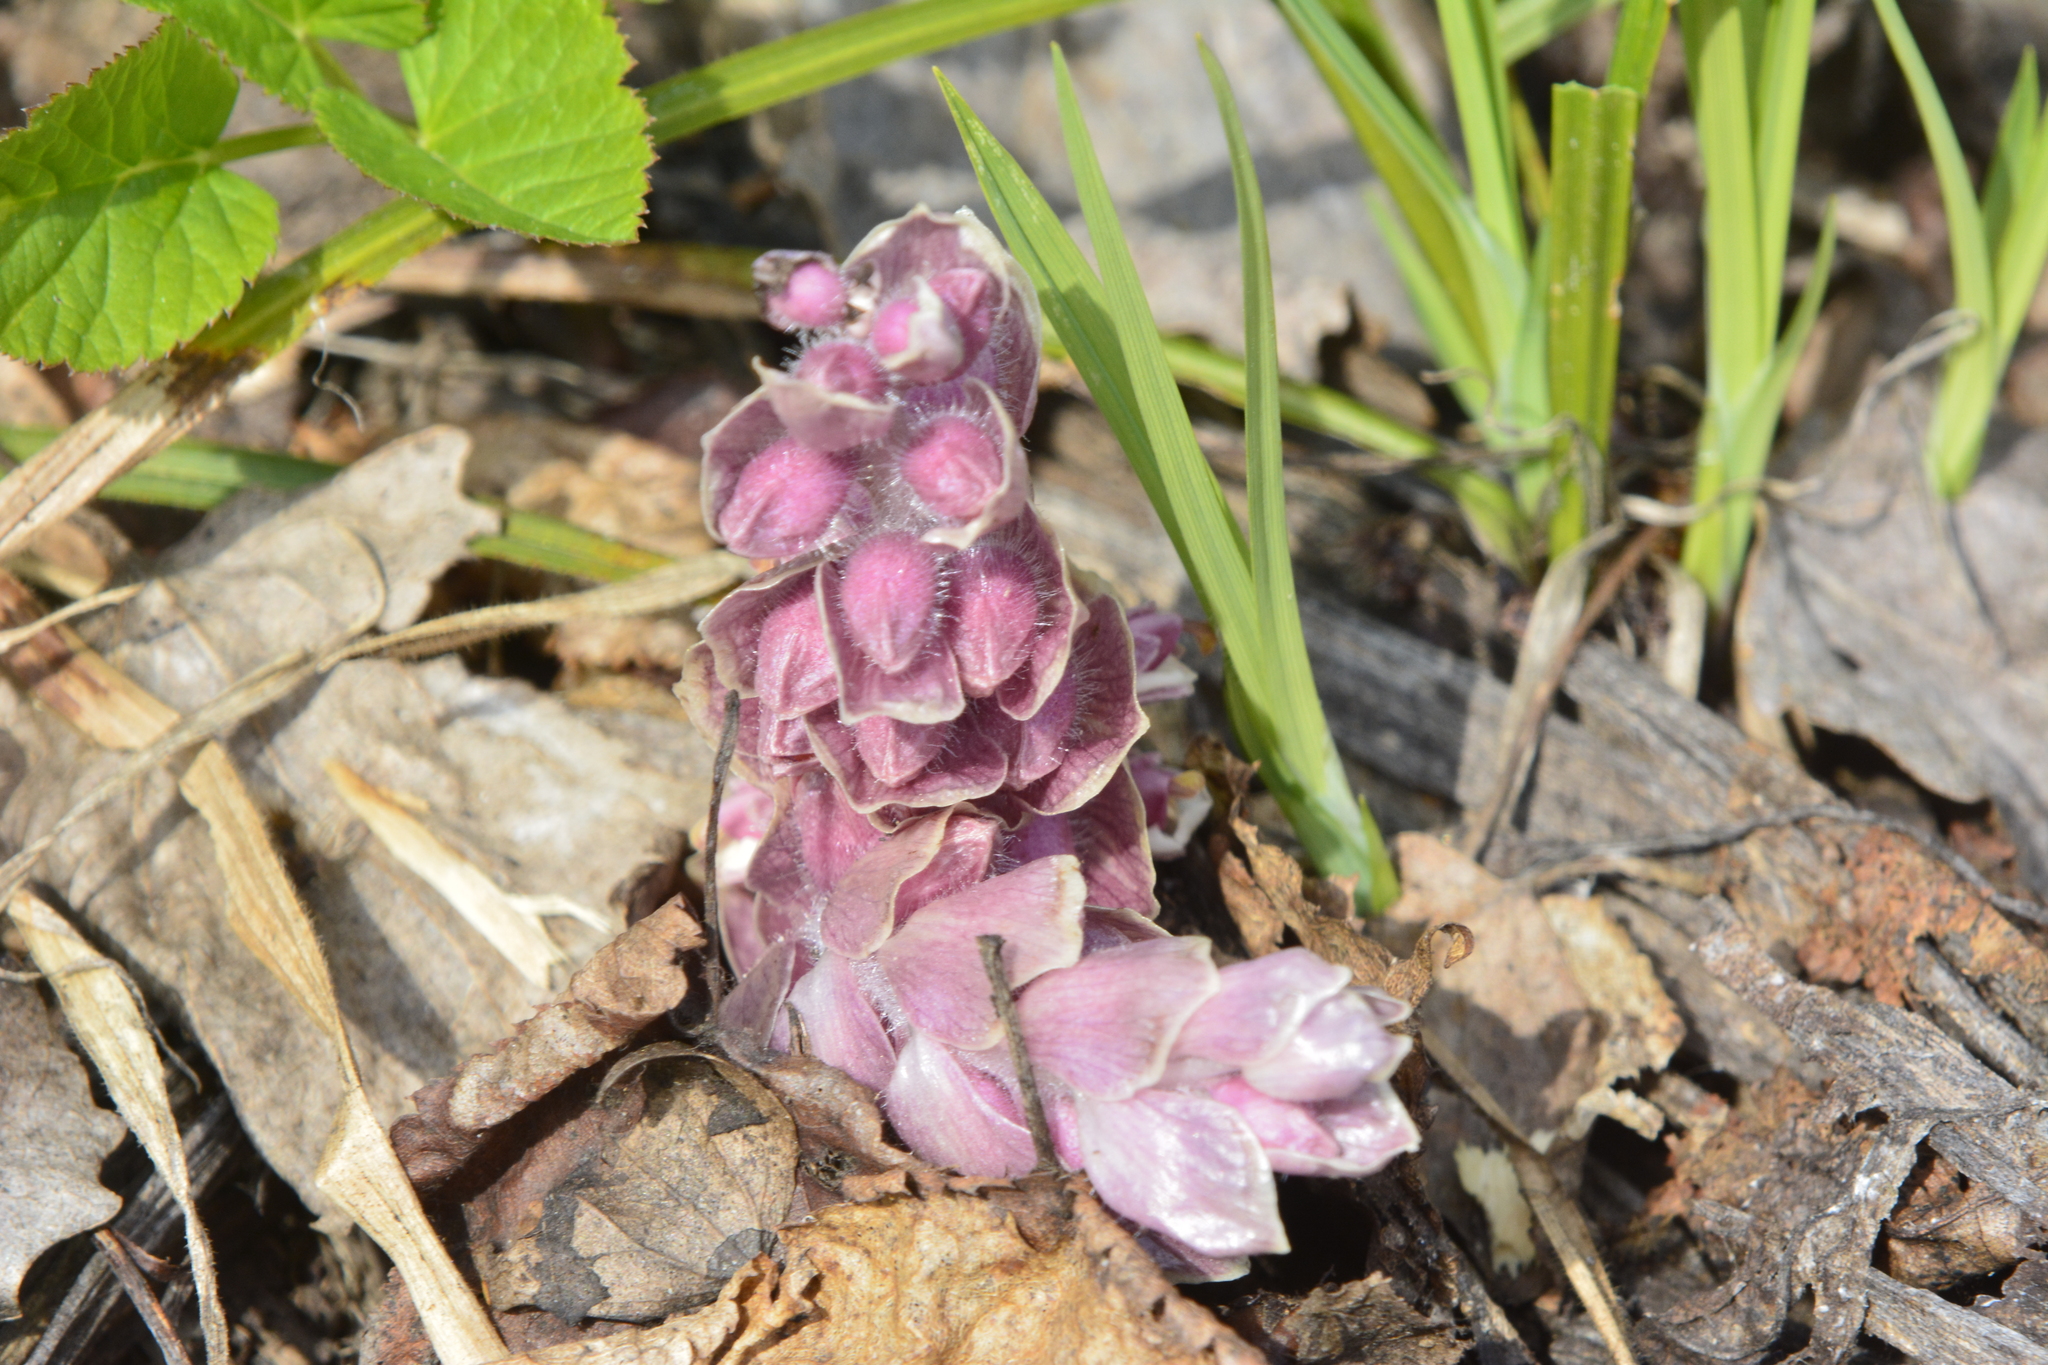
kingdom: Plantae
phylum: Tracheophyta
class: Magnoliopsida
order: Lamiales
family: Orobanchaceae
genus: Lathraea
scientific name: Lathraea squamaria
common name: Toothwort
